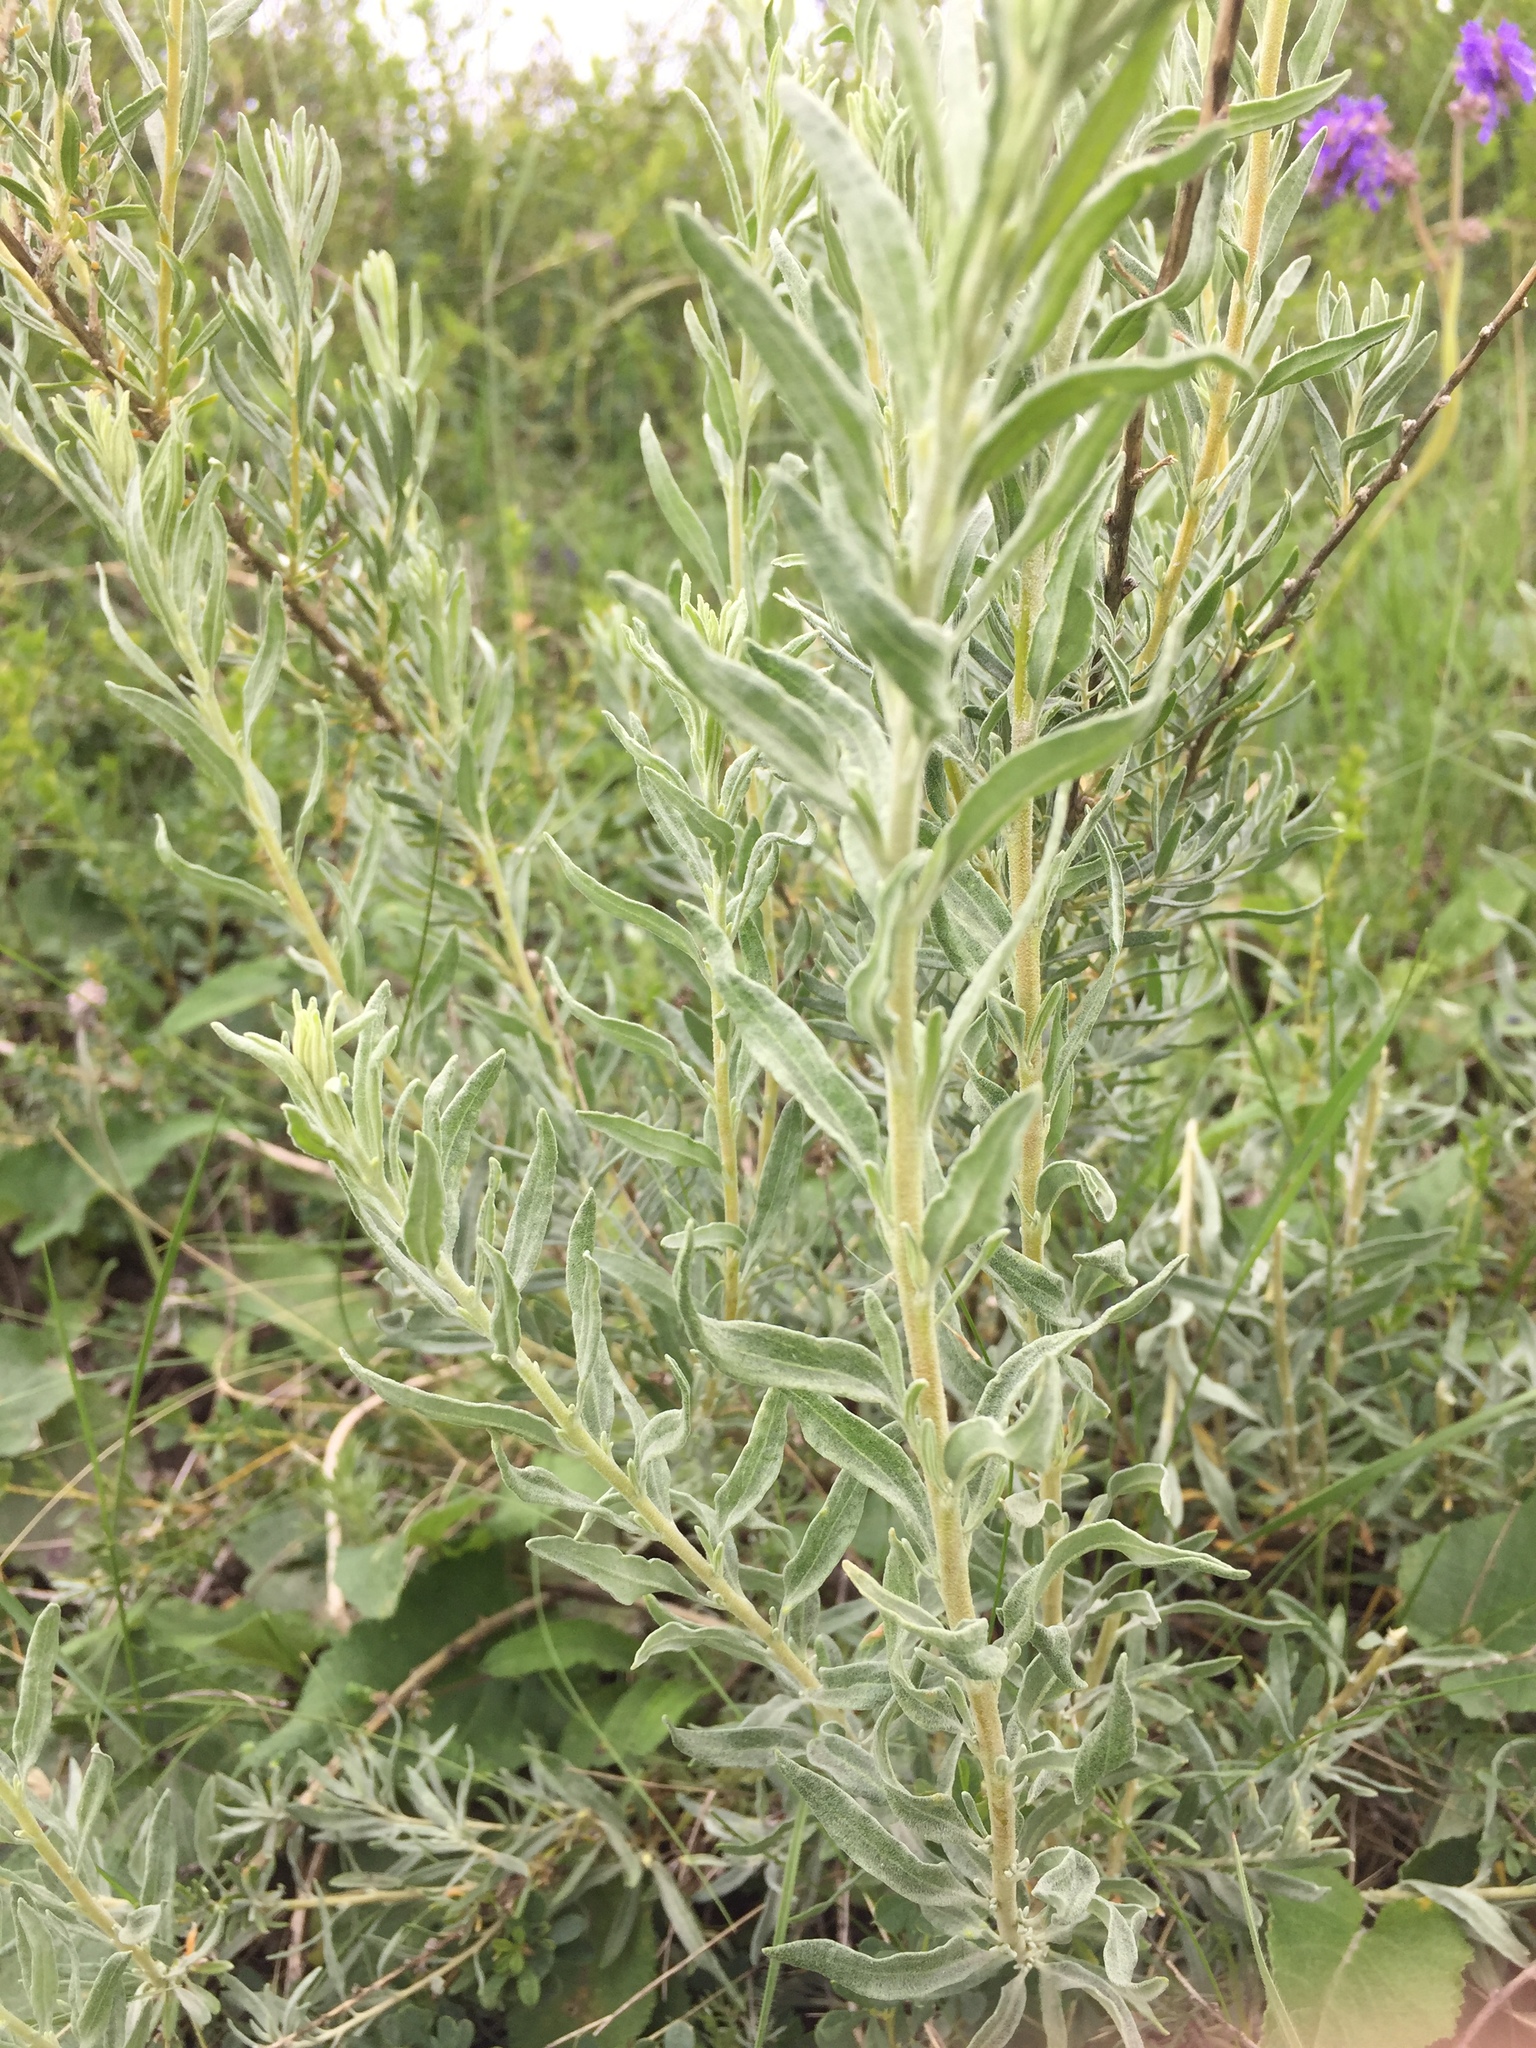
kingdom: Plantae
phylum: Tracheophyta
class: Magnoliopsida
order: Caryophyllales
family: Amaranthaceae
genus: Krascheninnikovia
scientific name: Krascheninnikovia ceratoides
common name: Pamirian winterfat
